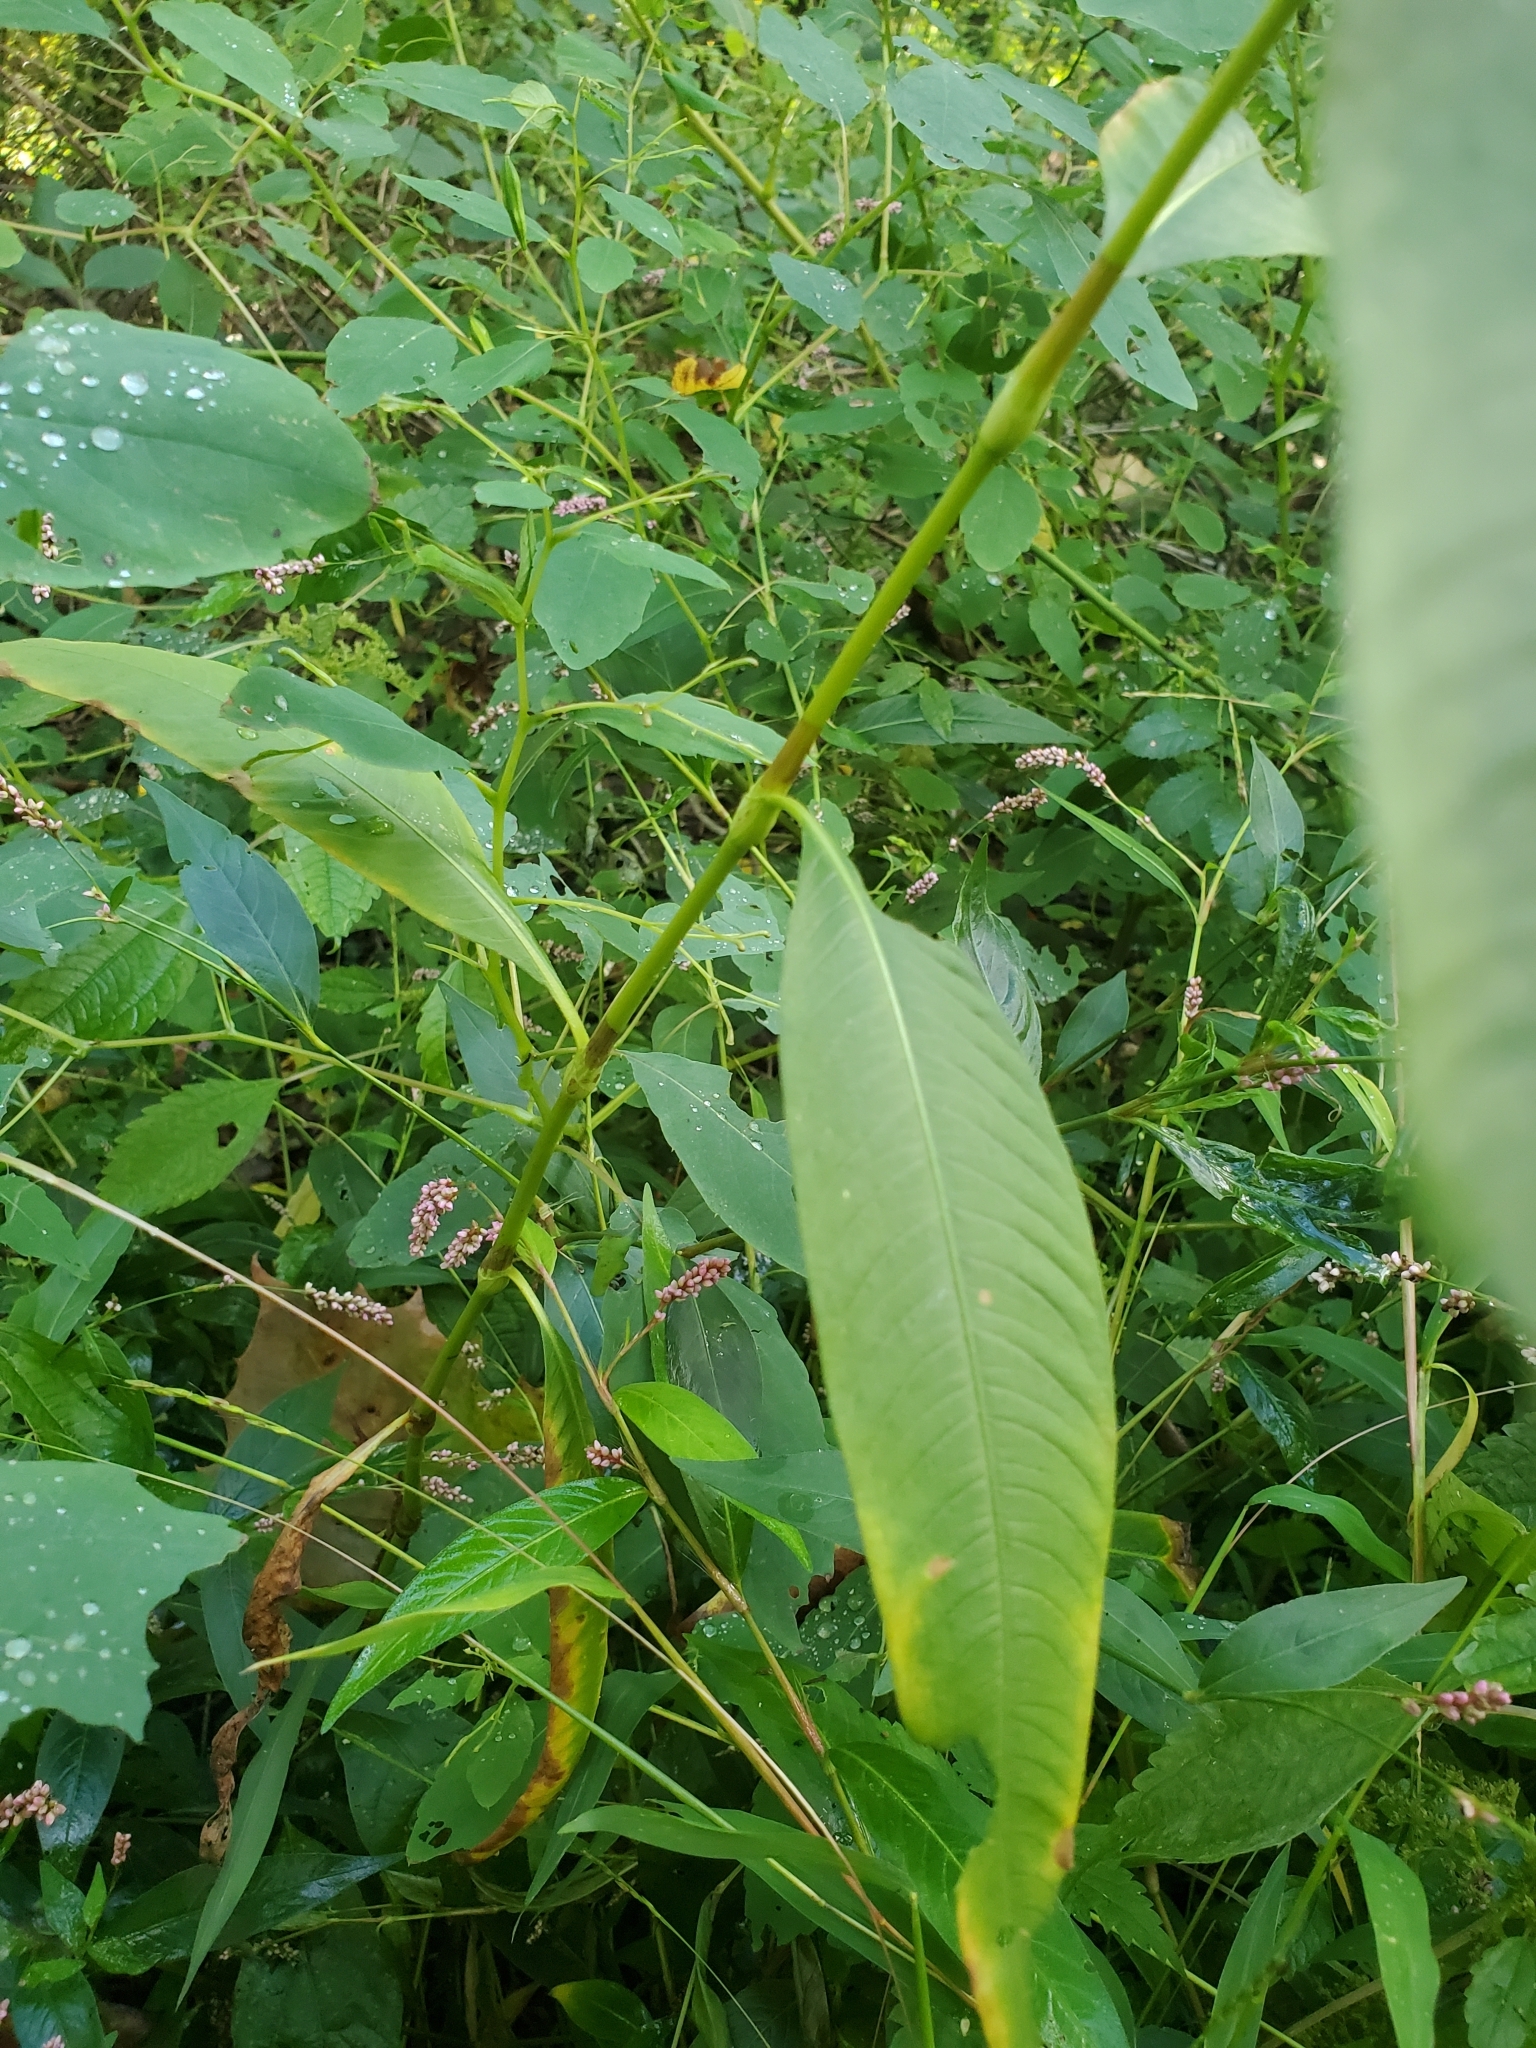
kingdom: Plantae
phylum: Tracheophyta
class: Magnoliopsida
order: Caryophyllales
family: Polygonaceae
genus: Persicaria
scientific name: Persicaria lapathifolia
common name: Curlytop knotweed
